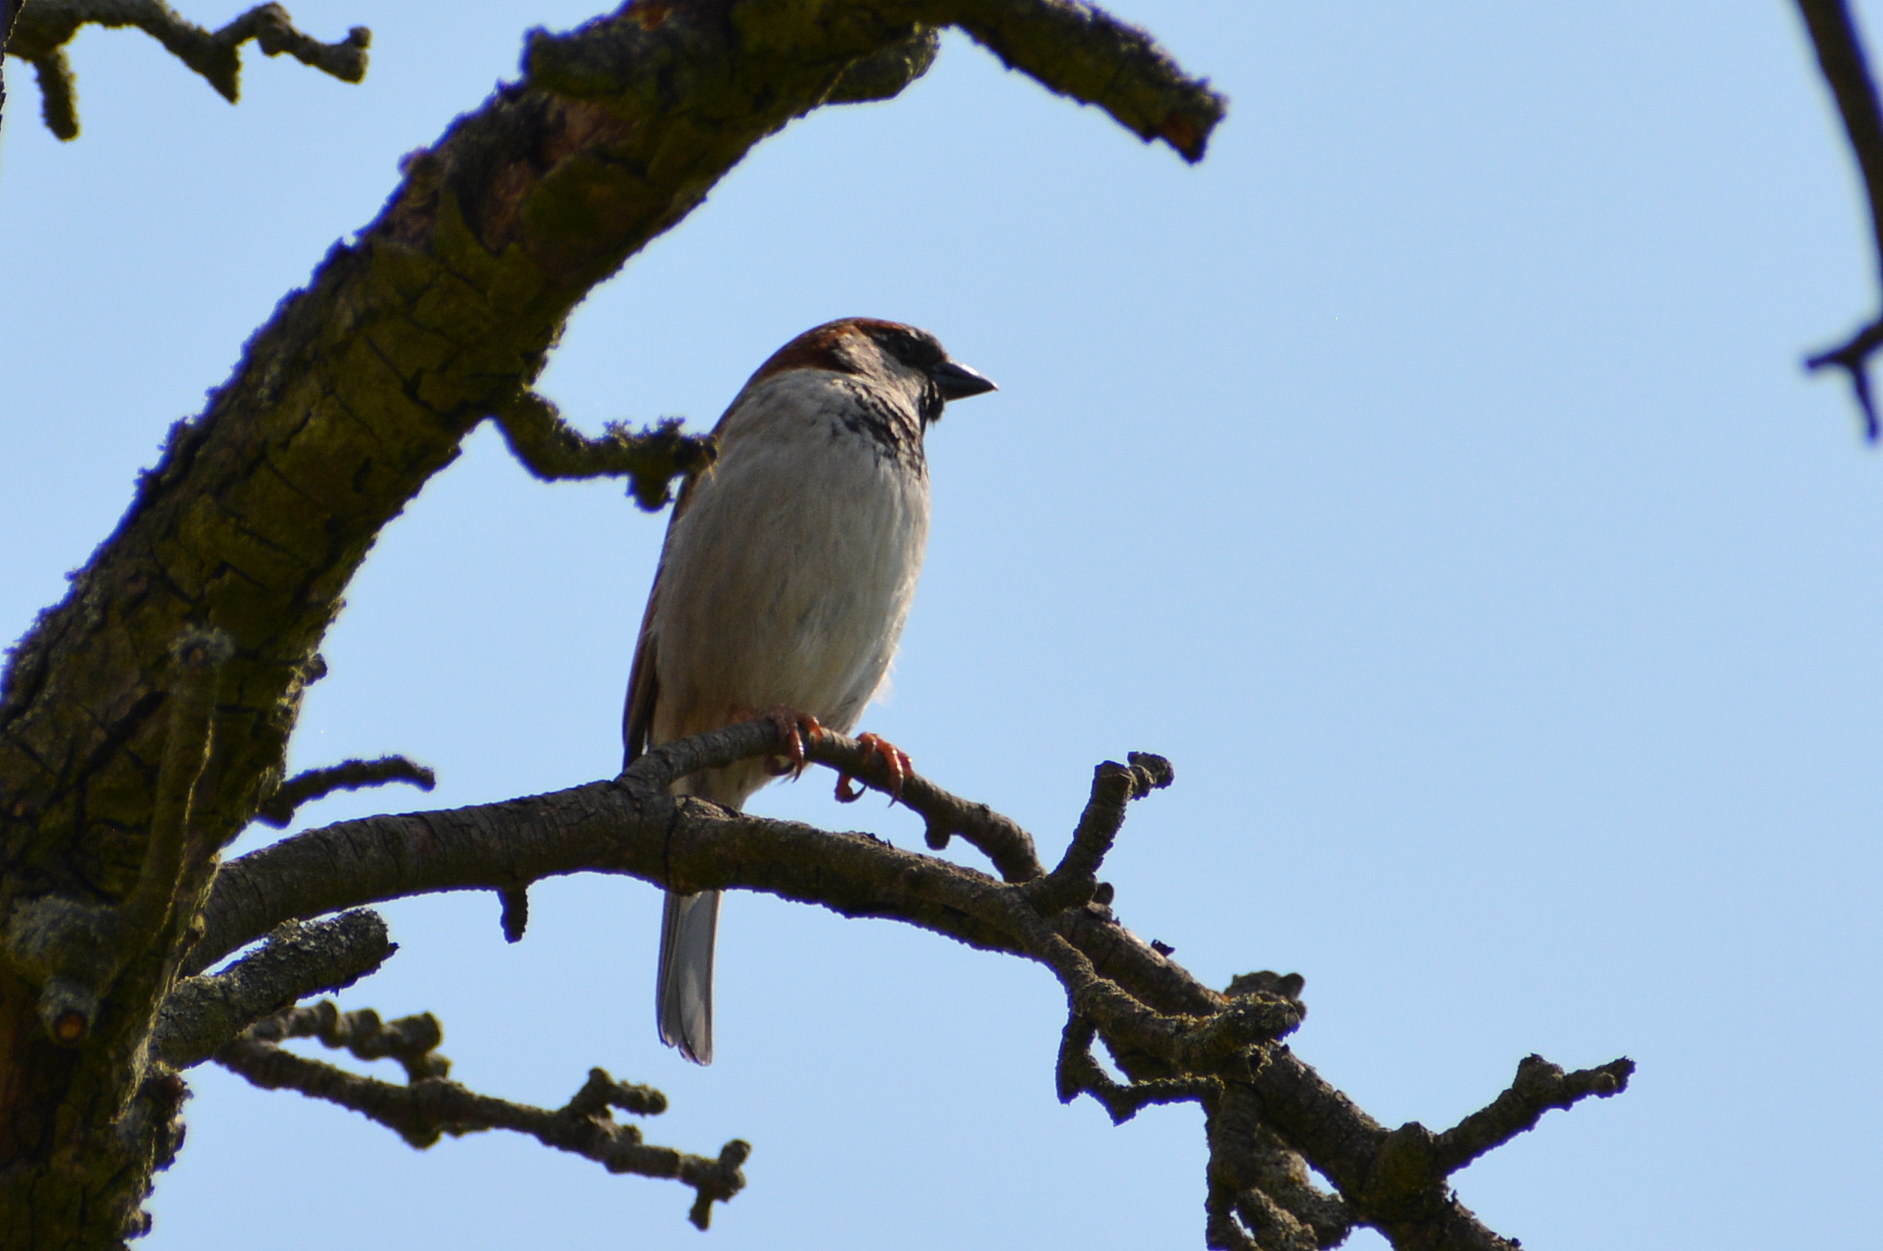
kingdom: Animalia
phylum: Chordata
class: Aves
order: Passeriformes
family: Passeridae
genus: Passer
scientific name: Passer domesticus
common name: House sparrow
